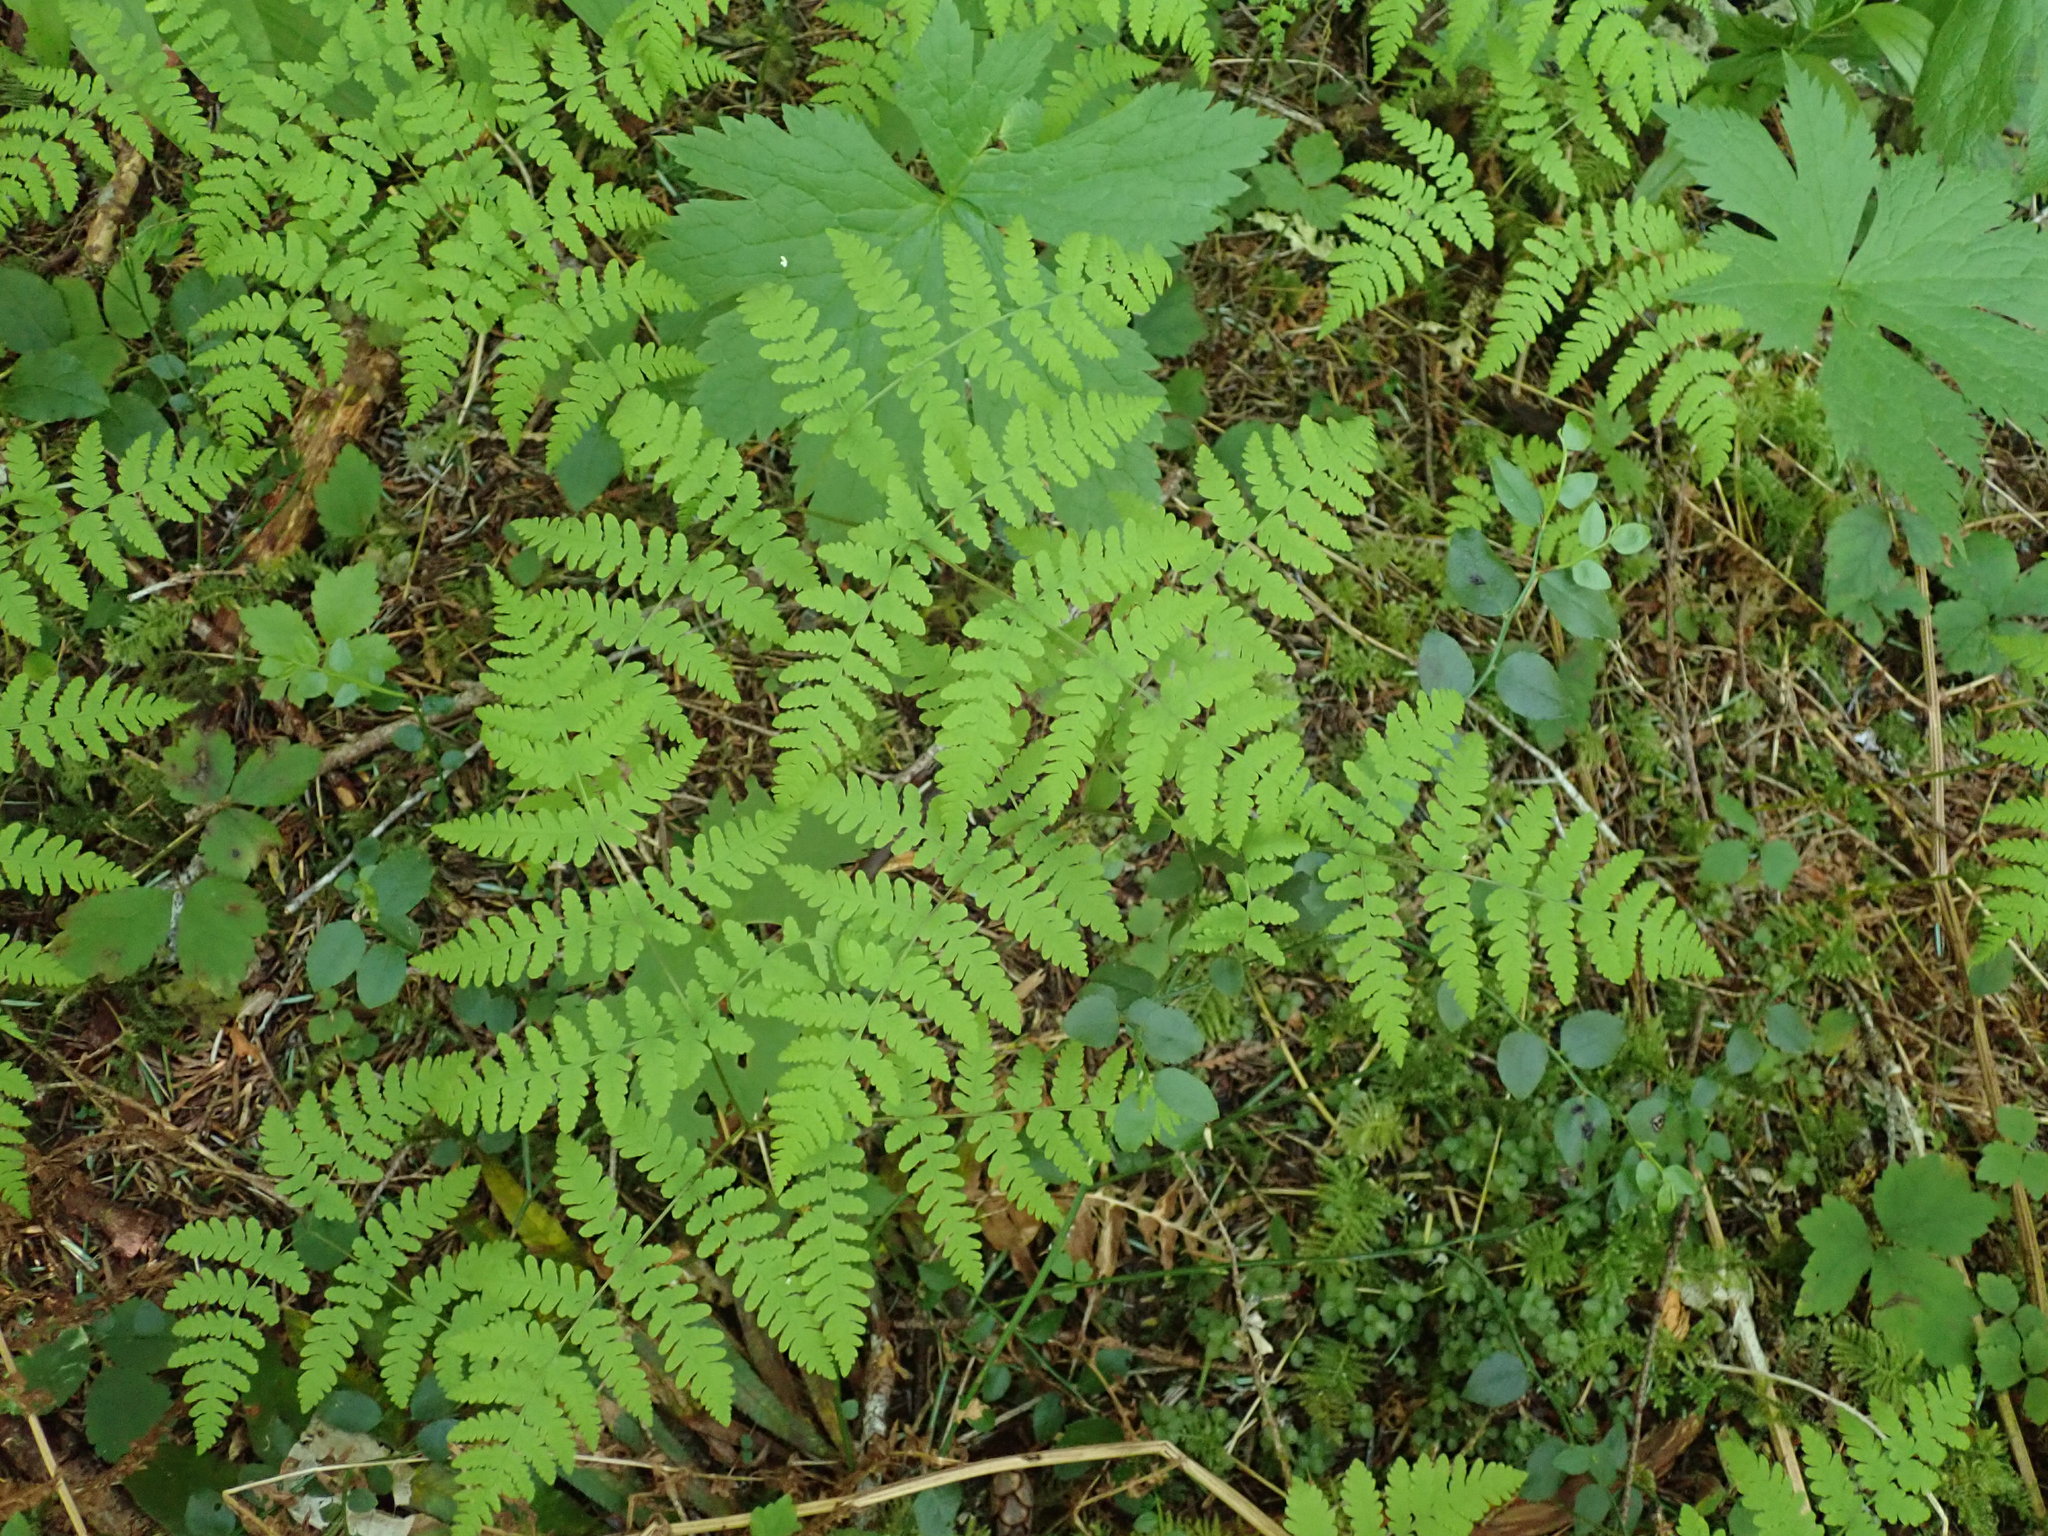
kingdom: Plantae
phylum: Tracheophyta
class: Polypodiopsida
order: Polypodiales
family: Cystopteridaceae
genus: Gymnocarpium
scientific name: Gymnocarpium disjunctum
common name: Western oak fern
